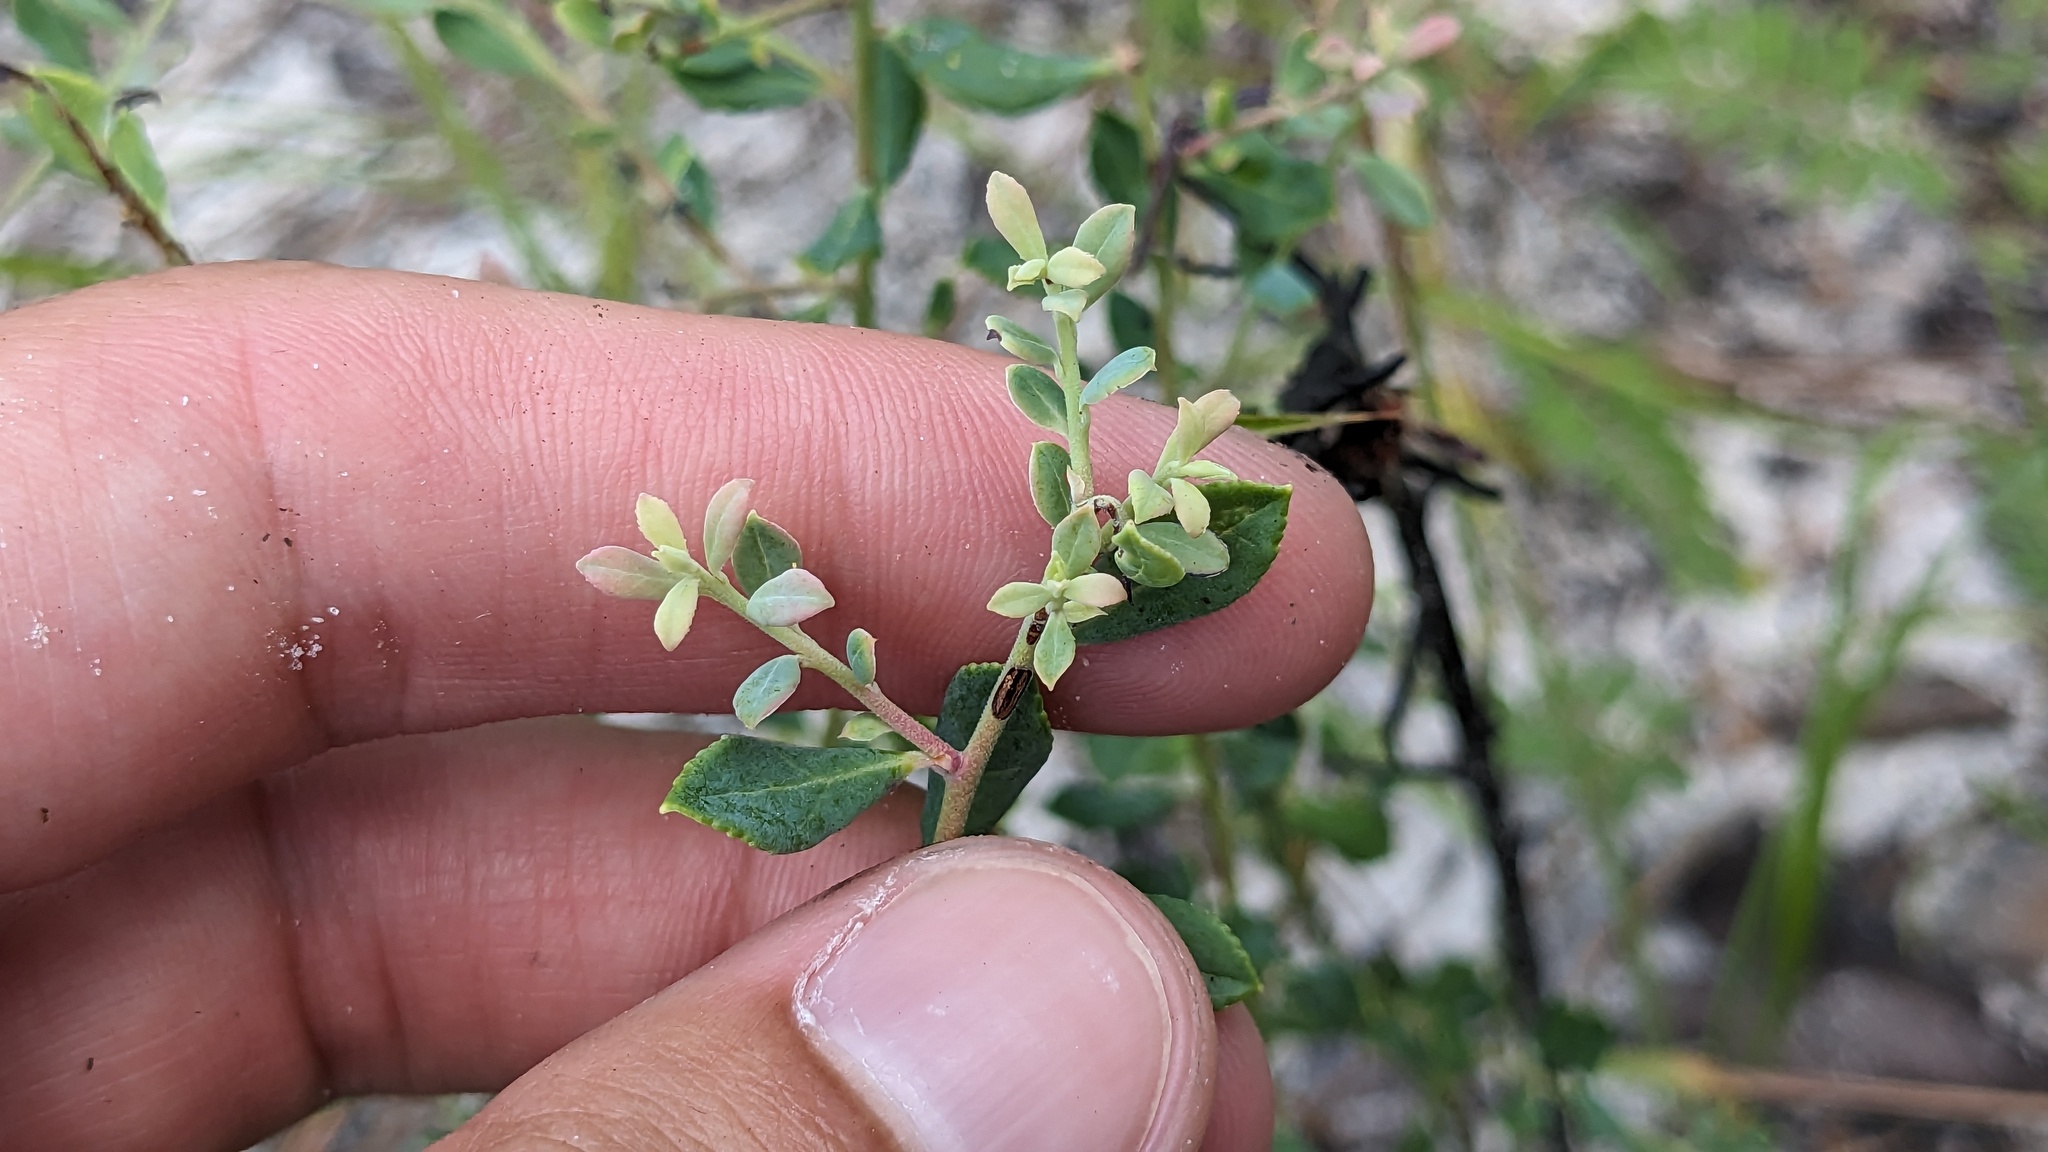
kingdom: Plantae
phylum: Tracheophyta
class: Magnoliopsida
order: Ericales
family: Ericaceae
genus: Vaccinium
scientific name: Vaccinium darrowii
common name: Darrow's blueberry
